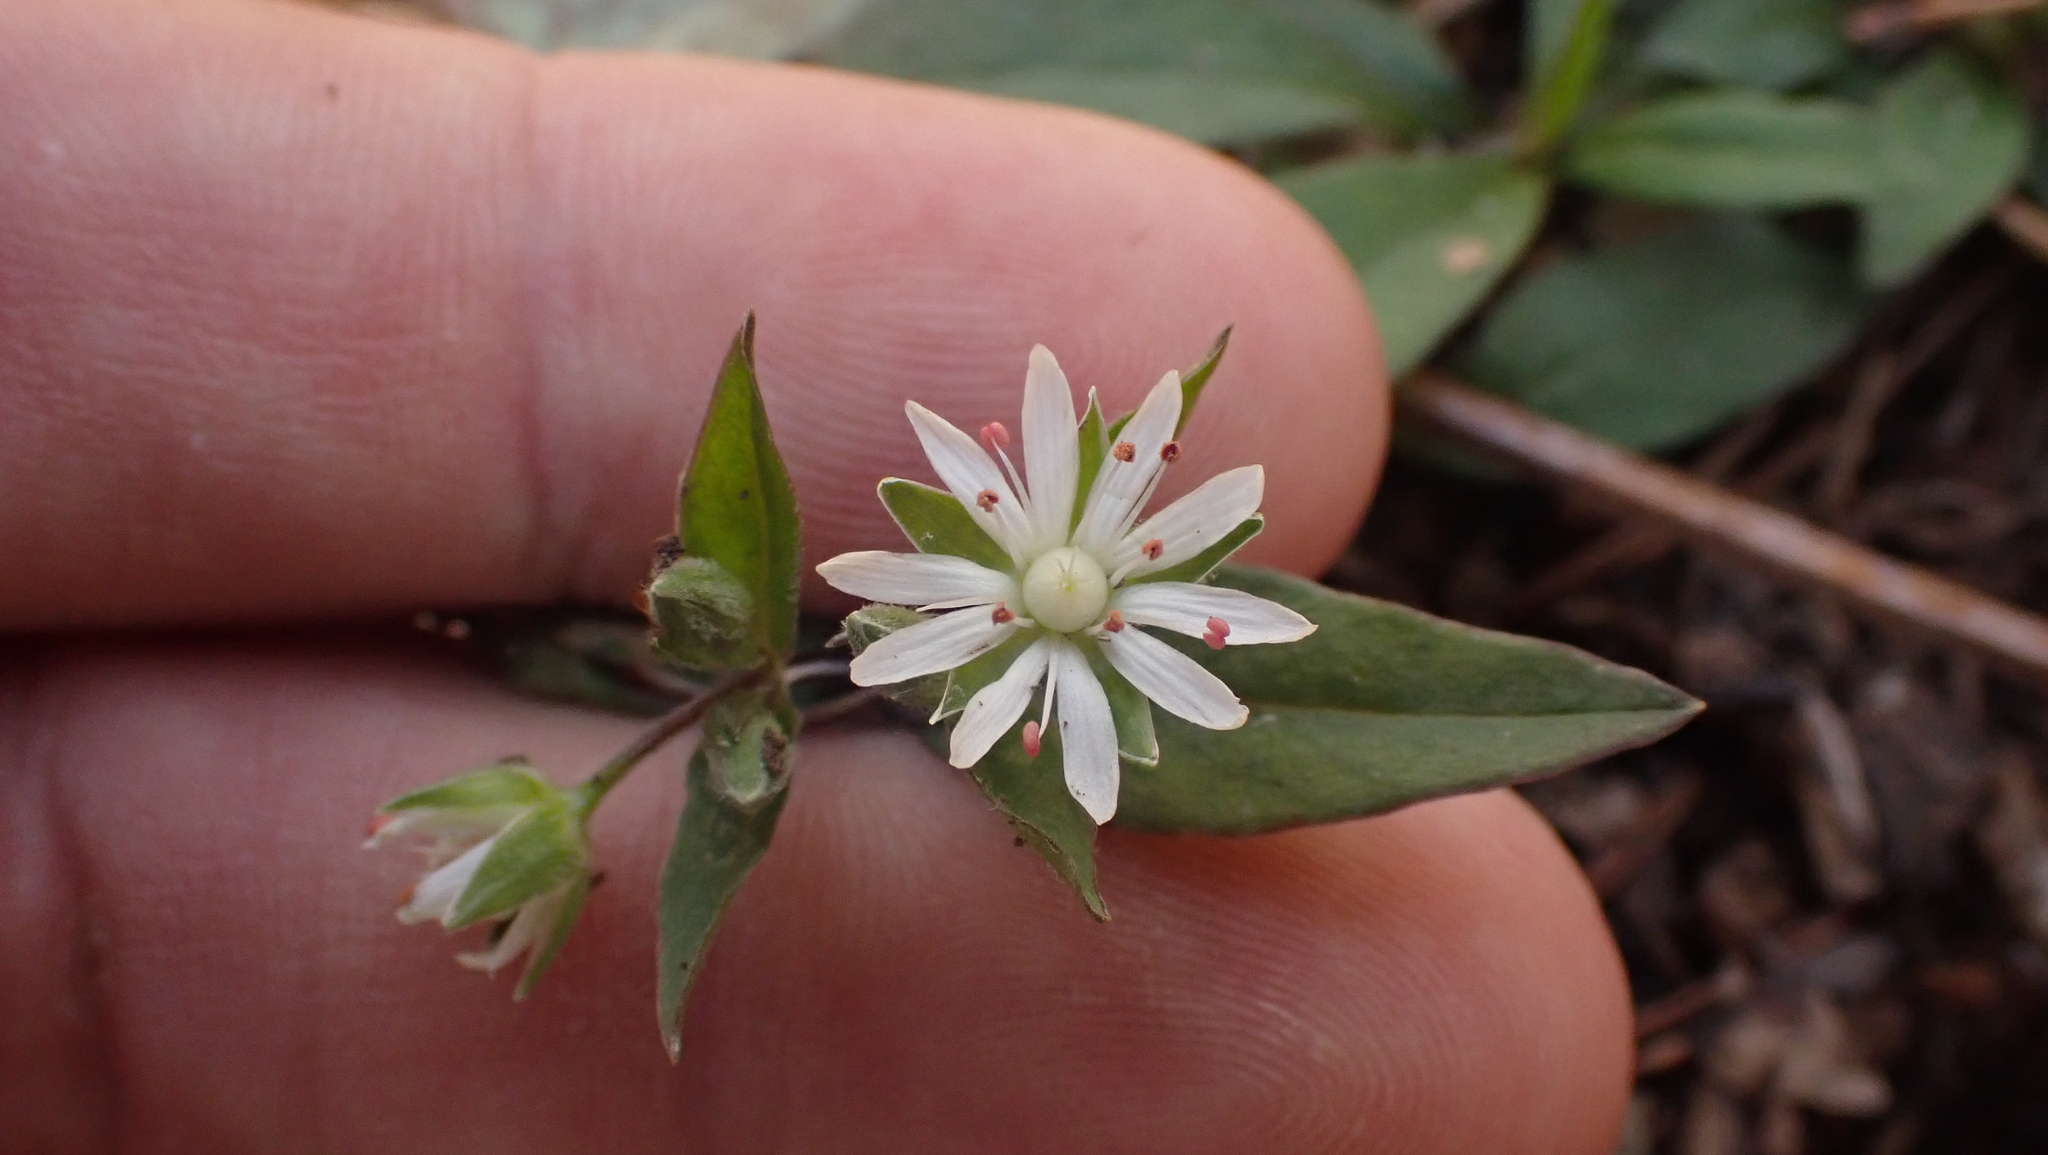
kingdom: Plantae
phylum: Tracheophyta
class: Magnoliopsida
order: Caryophyllales
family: Caryophyllaceae
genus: Stellaria
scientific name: Stellaria pubera
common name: Star chickweed
